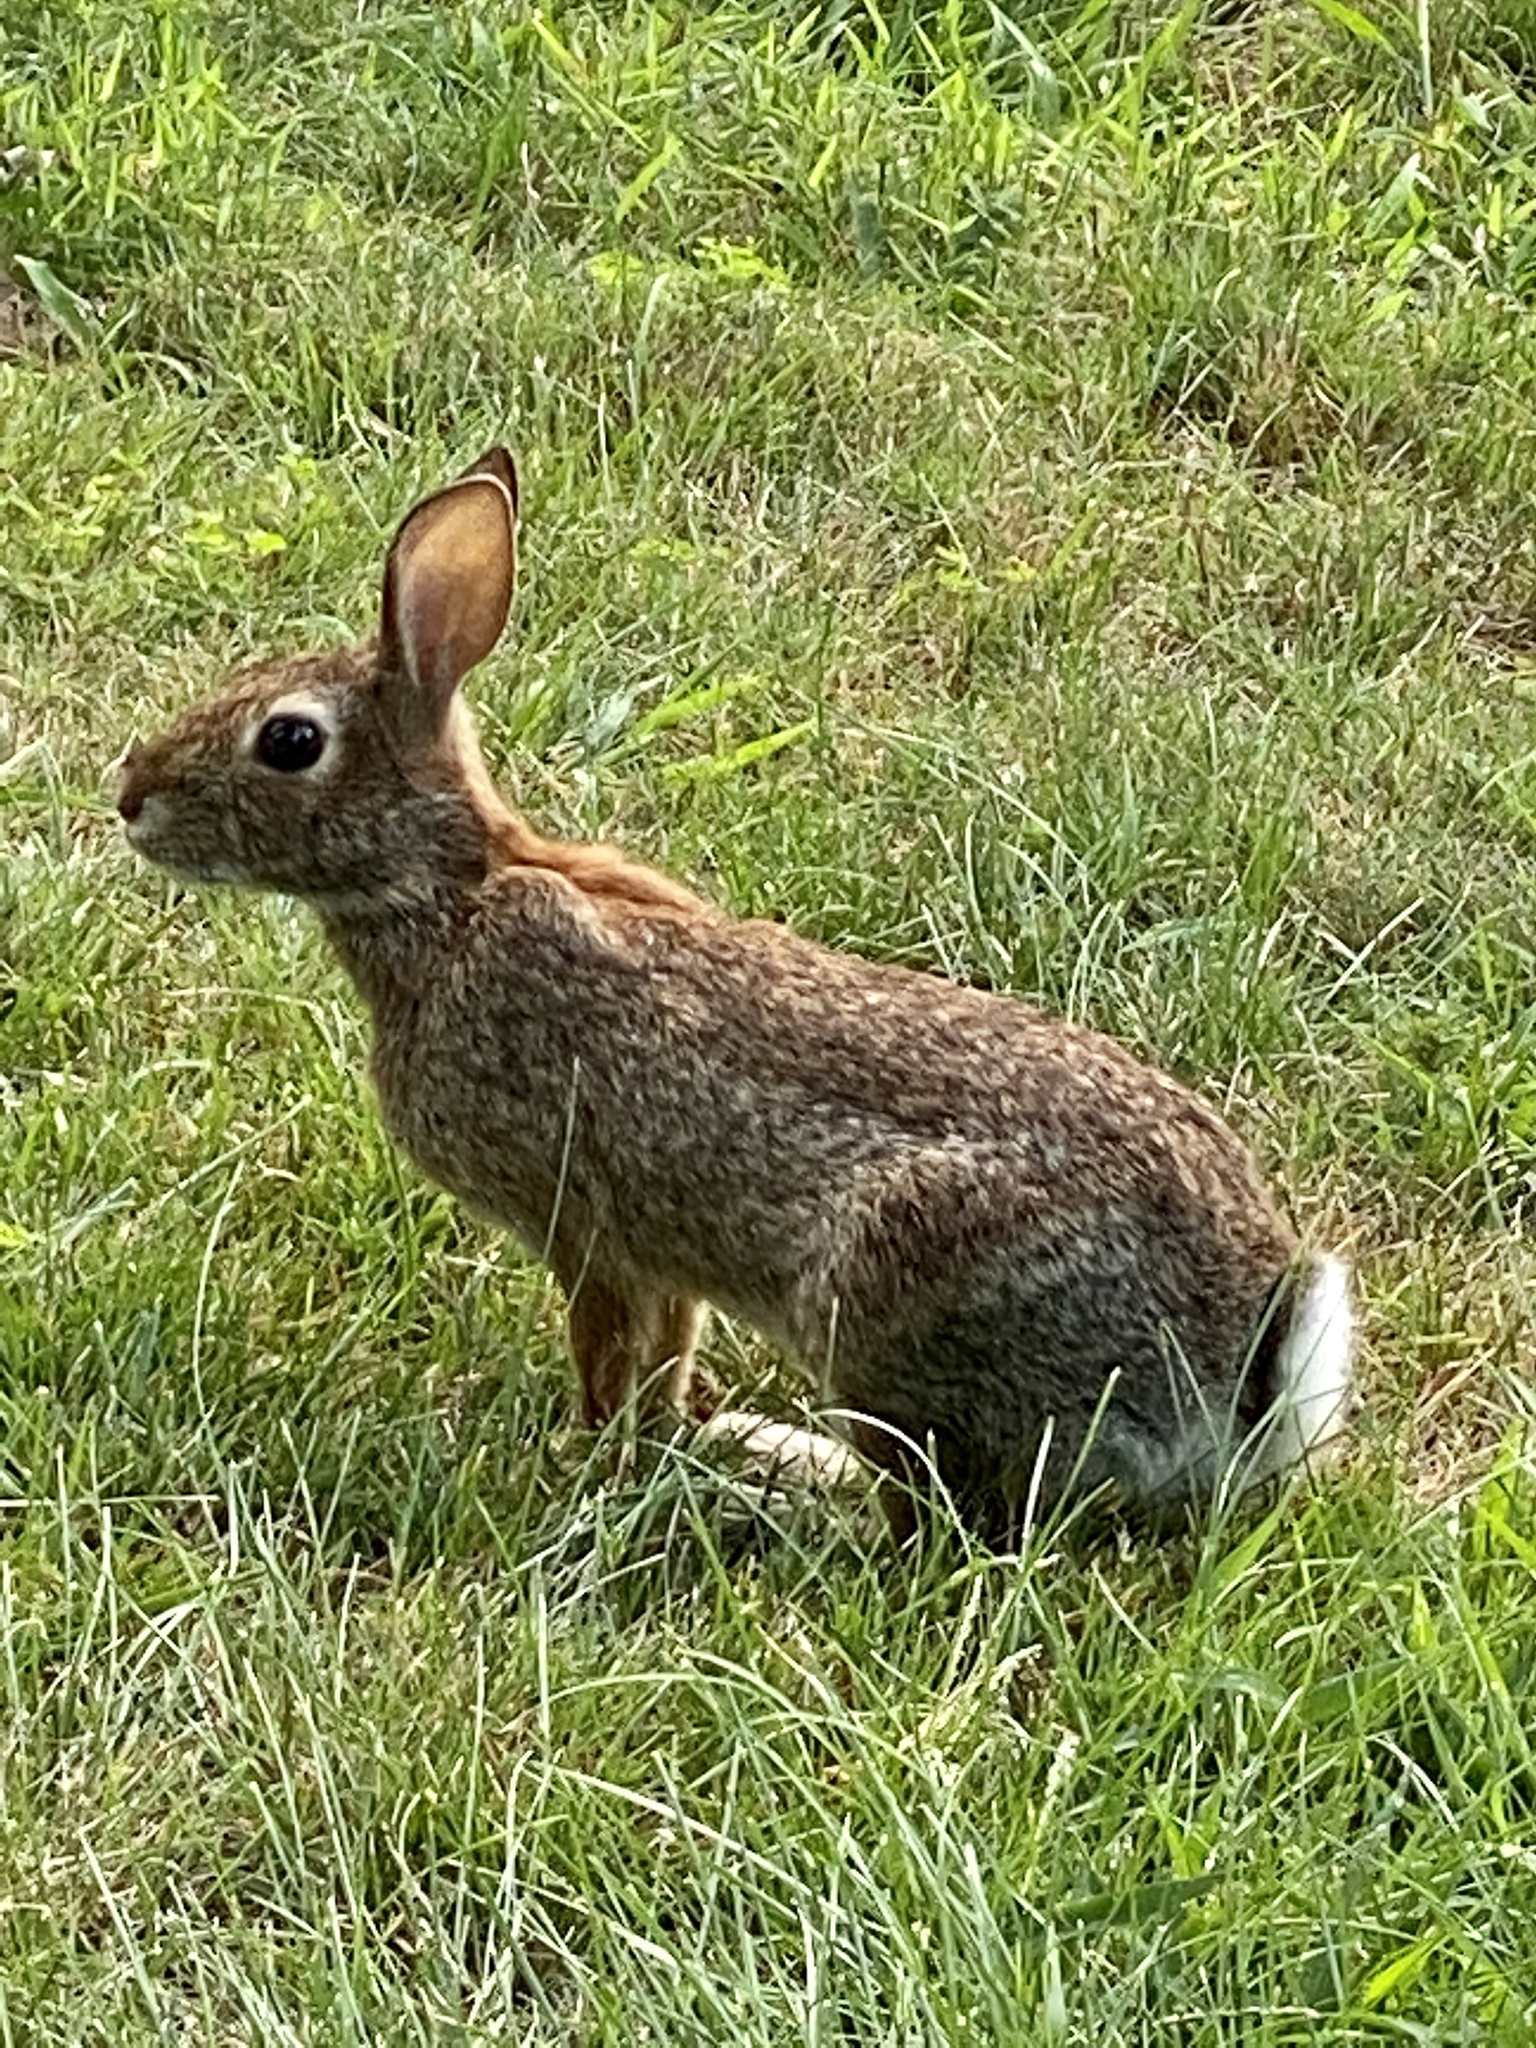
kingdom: Animalia
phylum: Chordata
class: Mammalia
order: Lagomorpha
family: Leporidae
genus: Sylvilagus
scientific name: Sylvilagus floridanus
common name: Eastern cottontail
